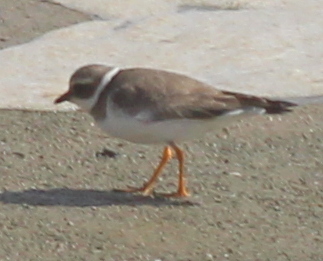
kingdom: Animalia
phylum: Chordata
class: Aves
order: Charadriiformes
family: Charadriidae
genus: Charadrius
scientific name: Charadrius hiaticula
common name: Common ringed plover
